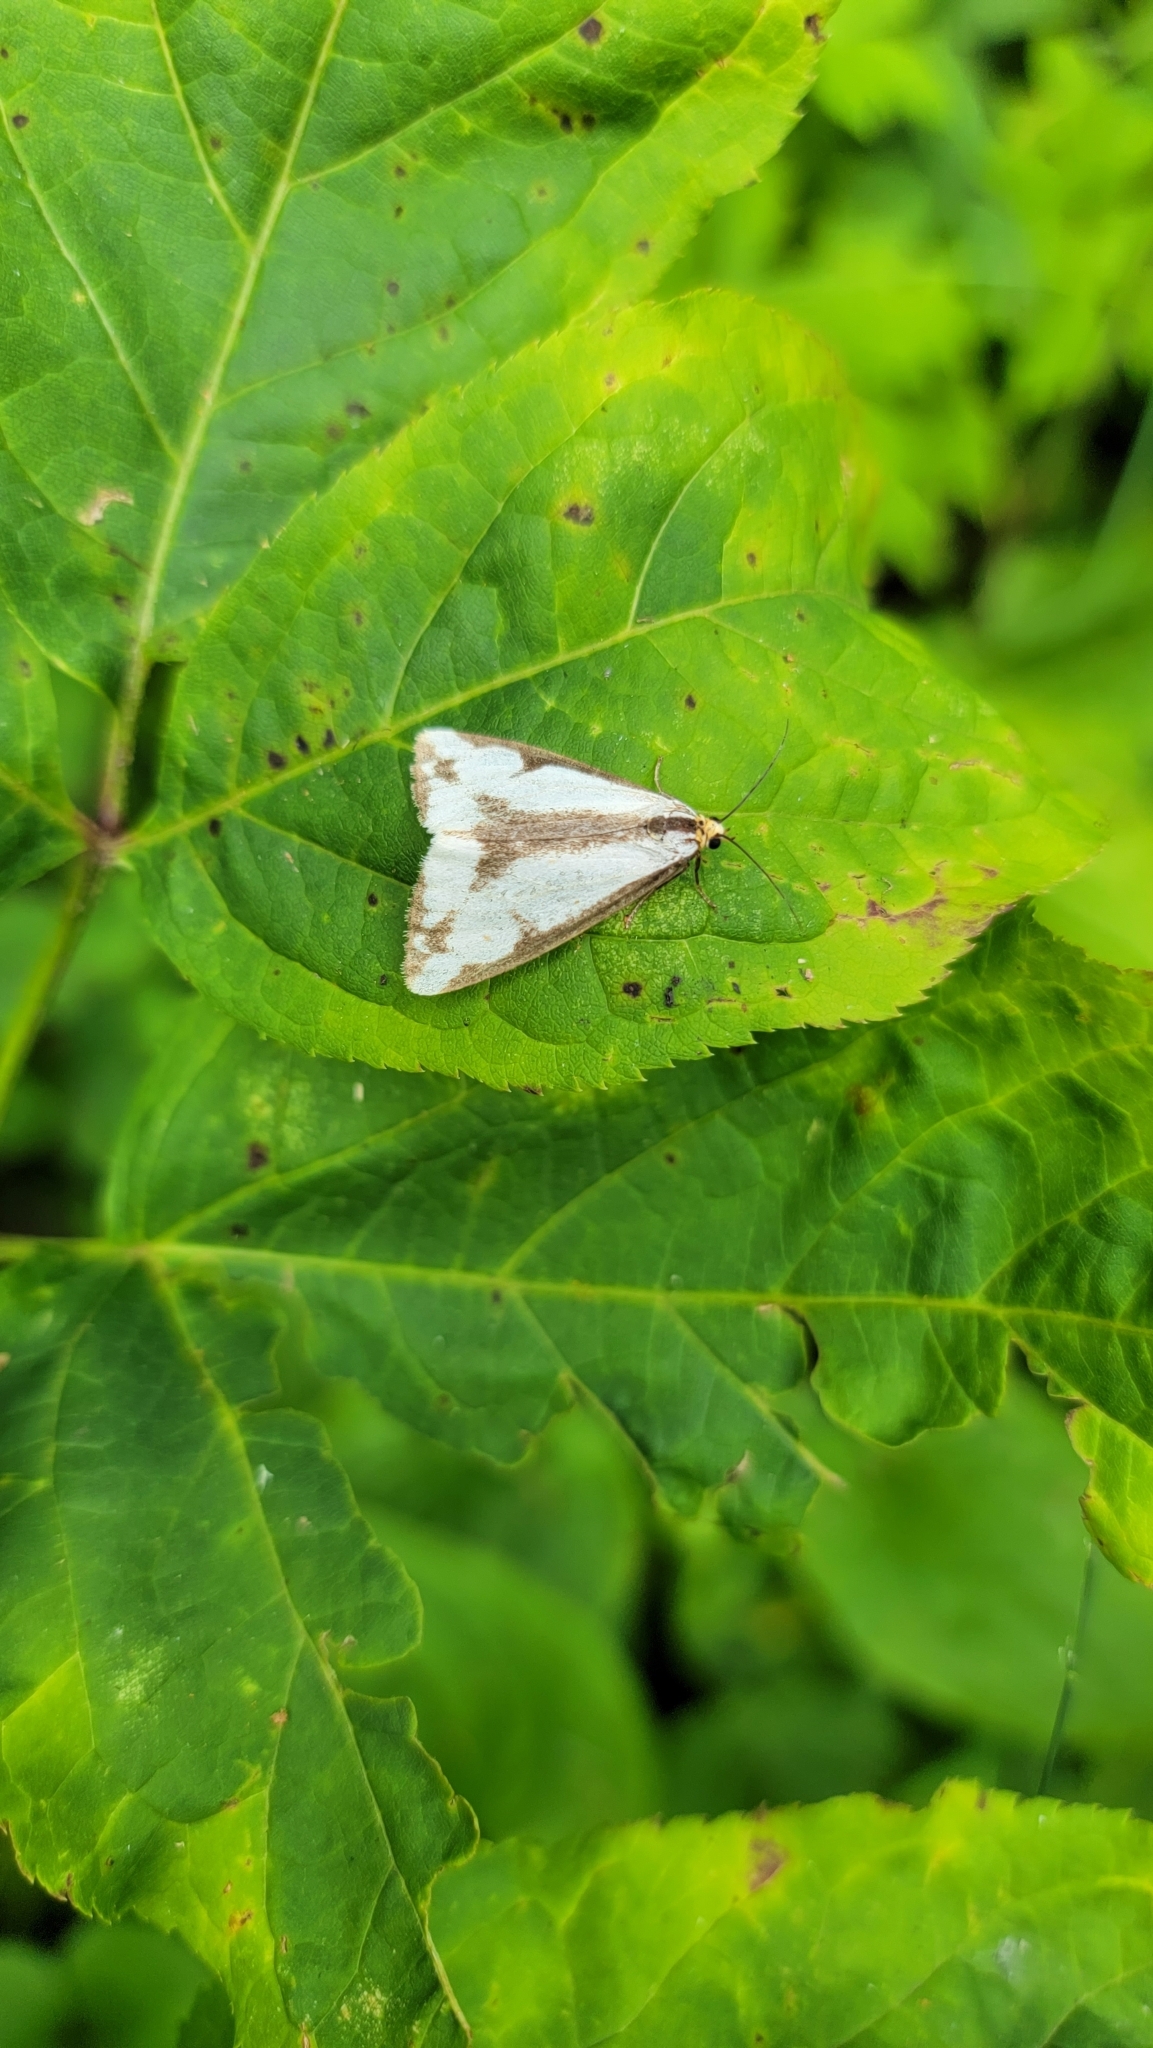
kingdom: Animalia
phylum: Arthropoda
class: Insecta
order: Lepidoptera
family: Erebidae
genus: Haploa
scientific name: Haploa lecontei
